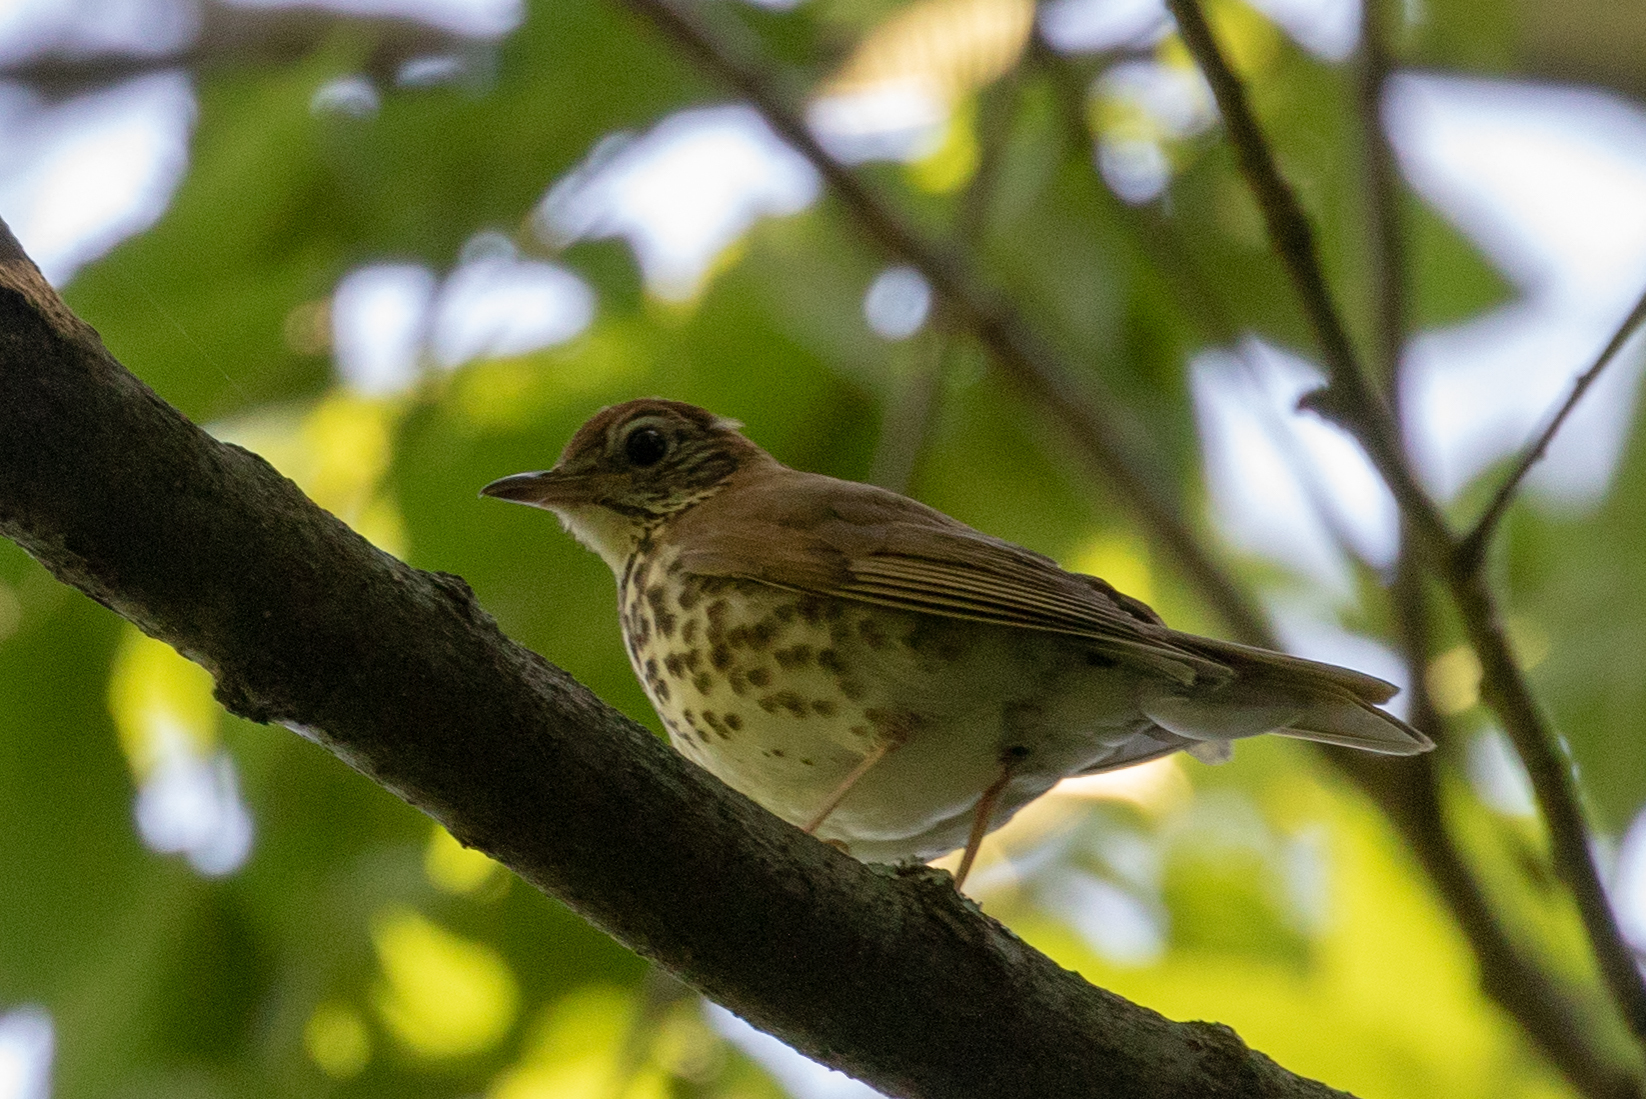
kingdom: Animalia
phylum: Chordata
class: Aves
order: Passeriformes
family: Turdidae
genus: Hylocichla
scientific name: Hylocichla mustelina
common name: Wood thrush
